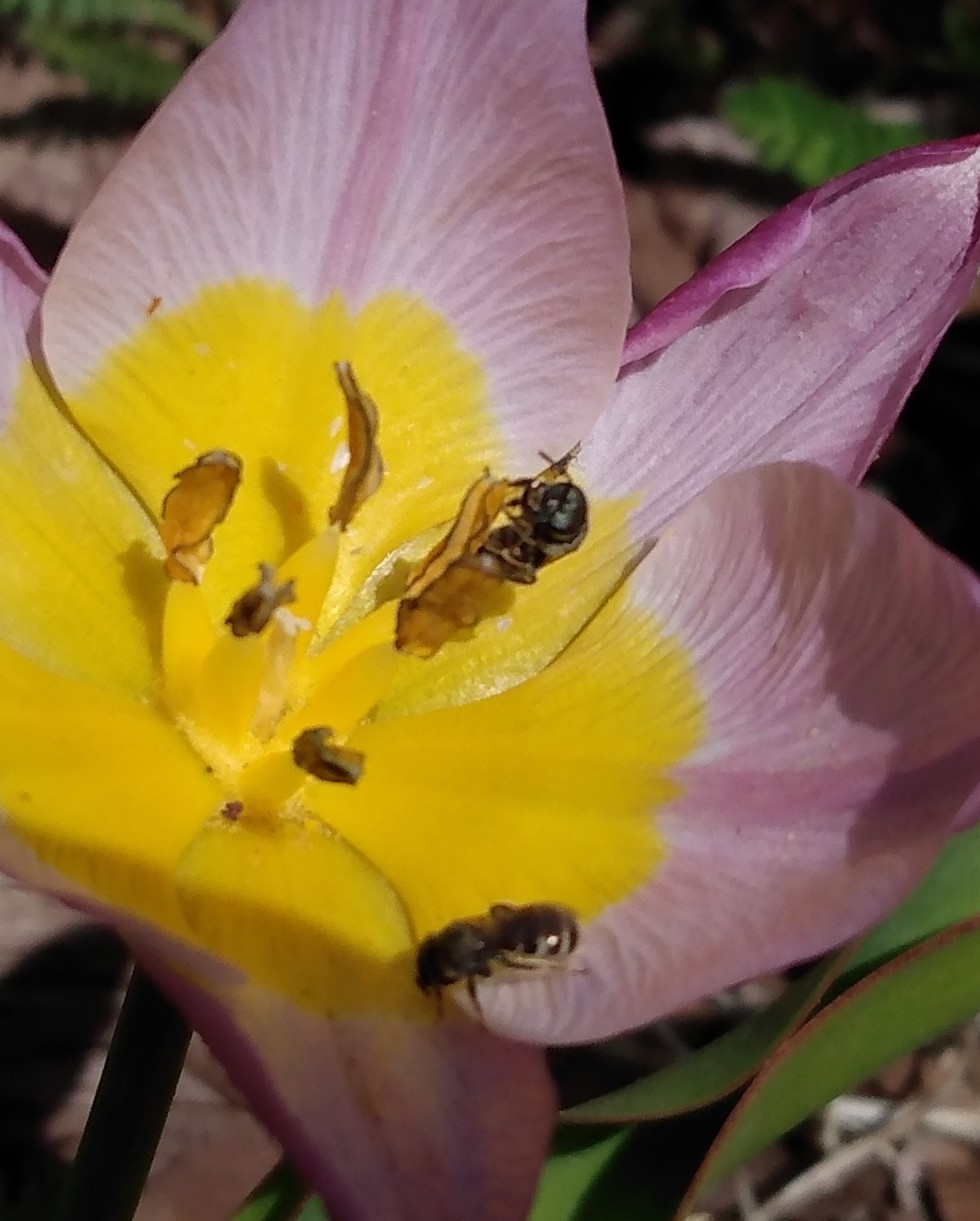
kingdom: Animalia
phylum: Arthropoda
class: Insecta
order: Hymenoptera
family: Halictidae
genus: Halictus
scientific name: Halictus tripartitus
